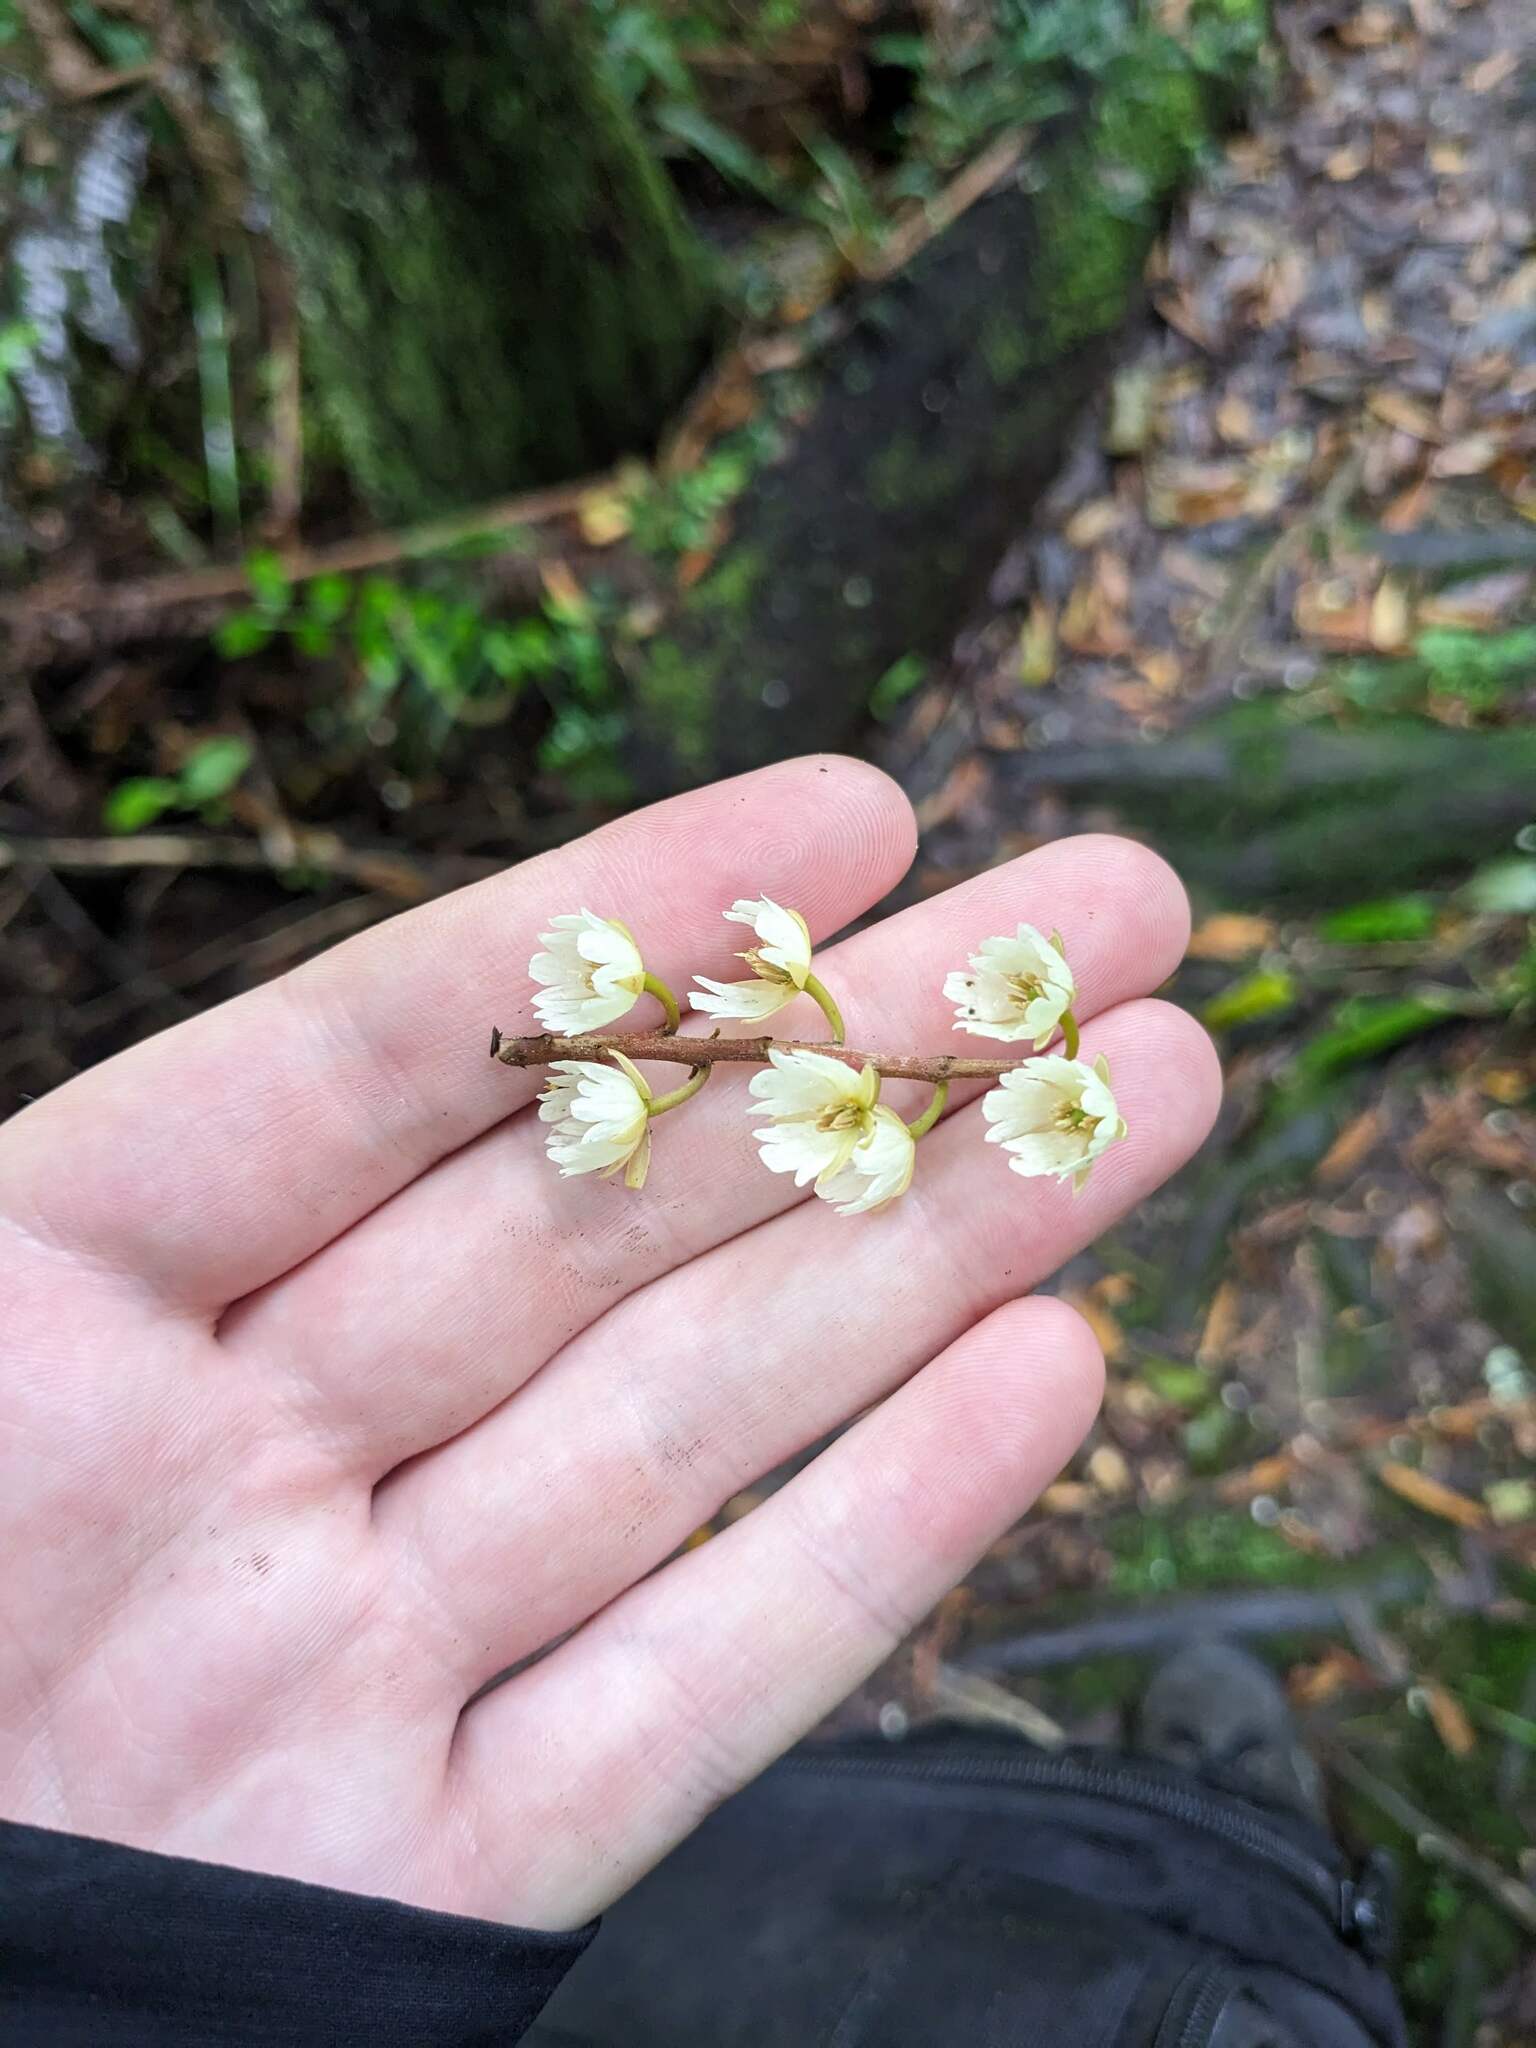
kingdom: Plantae
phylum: Tracheophyta
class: Magnoliopsida
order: Oxalidales
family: Elaeocarpaceae
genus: Elaeocarpus
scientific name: Elaeocarpus dentatus
